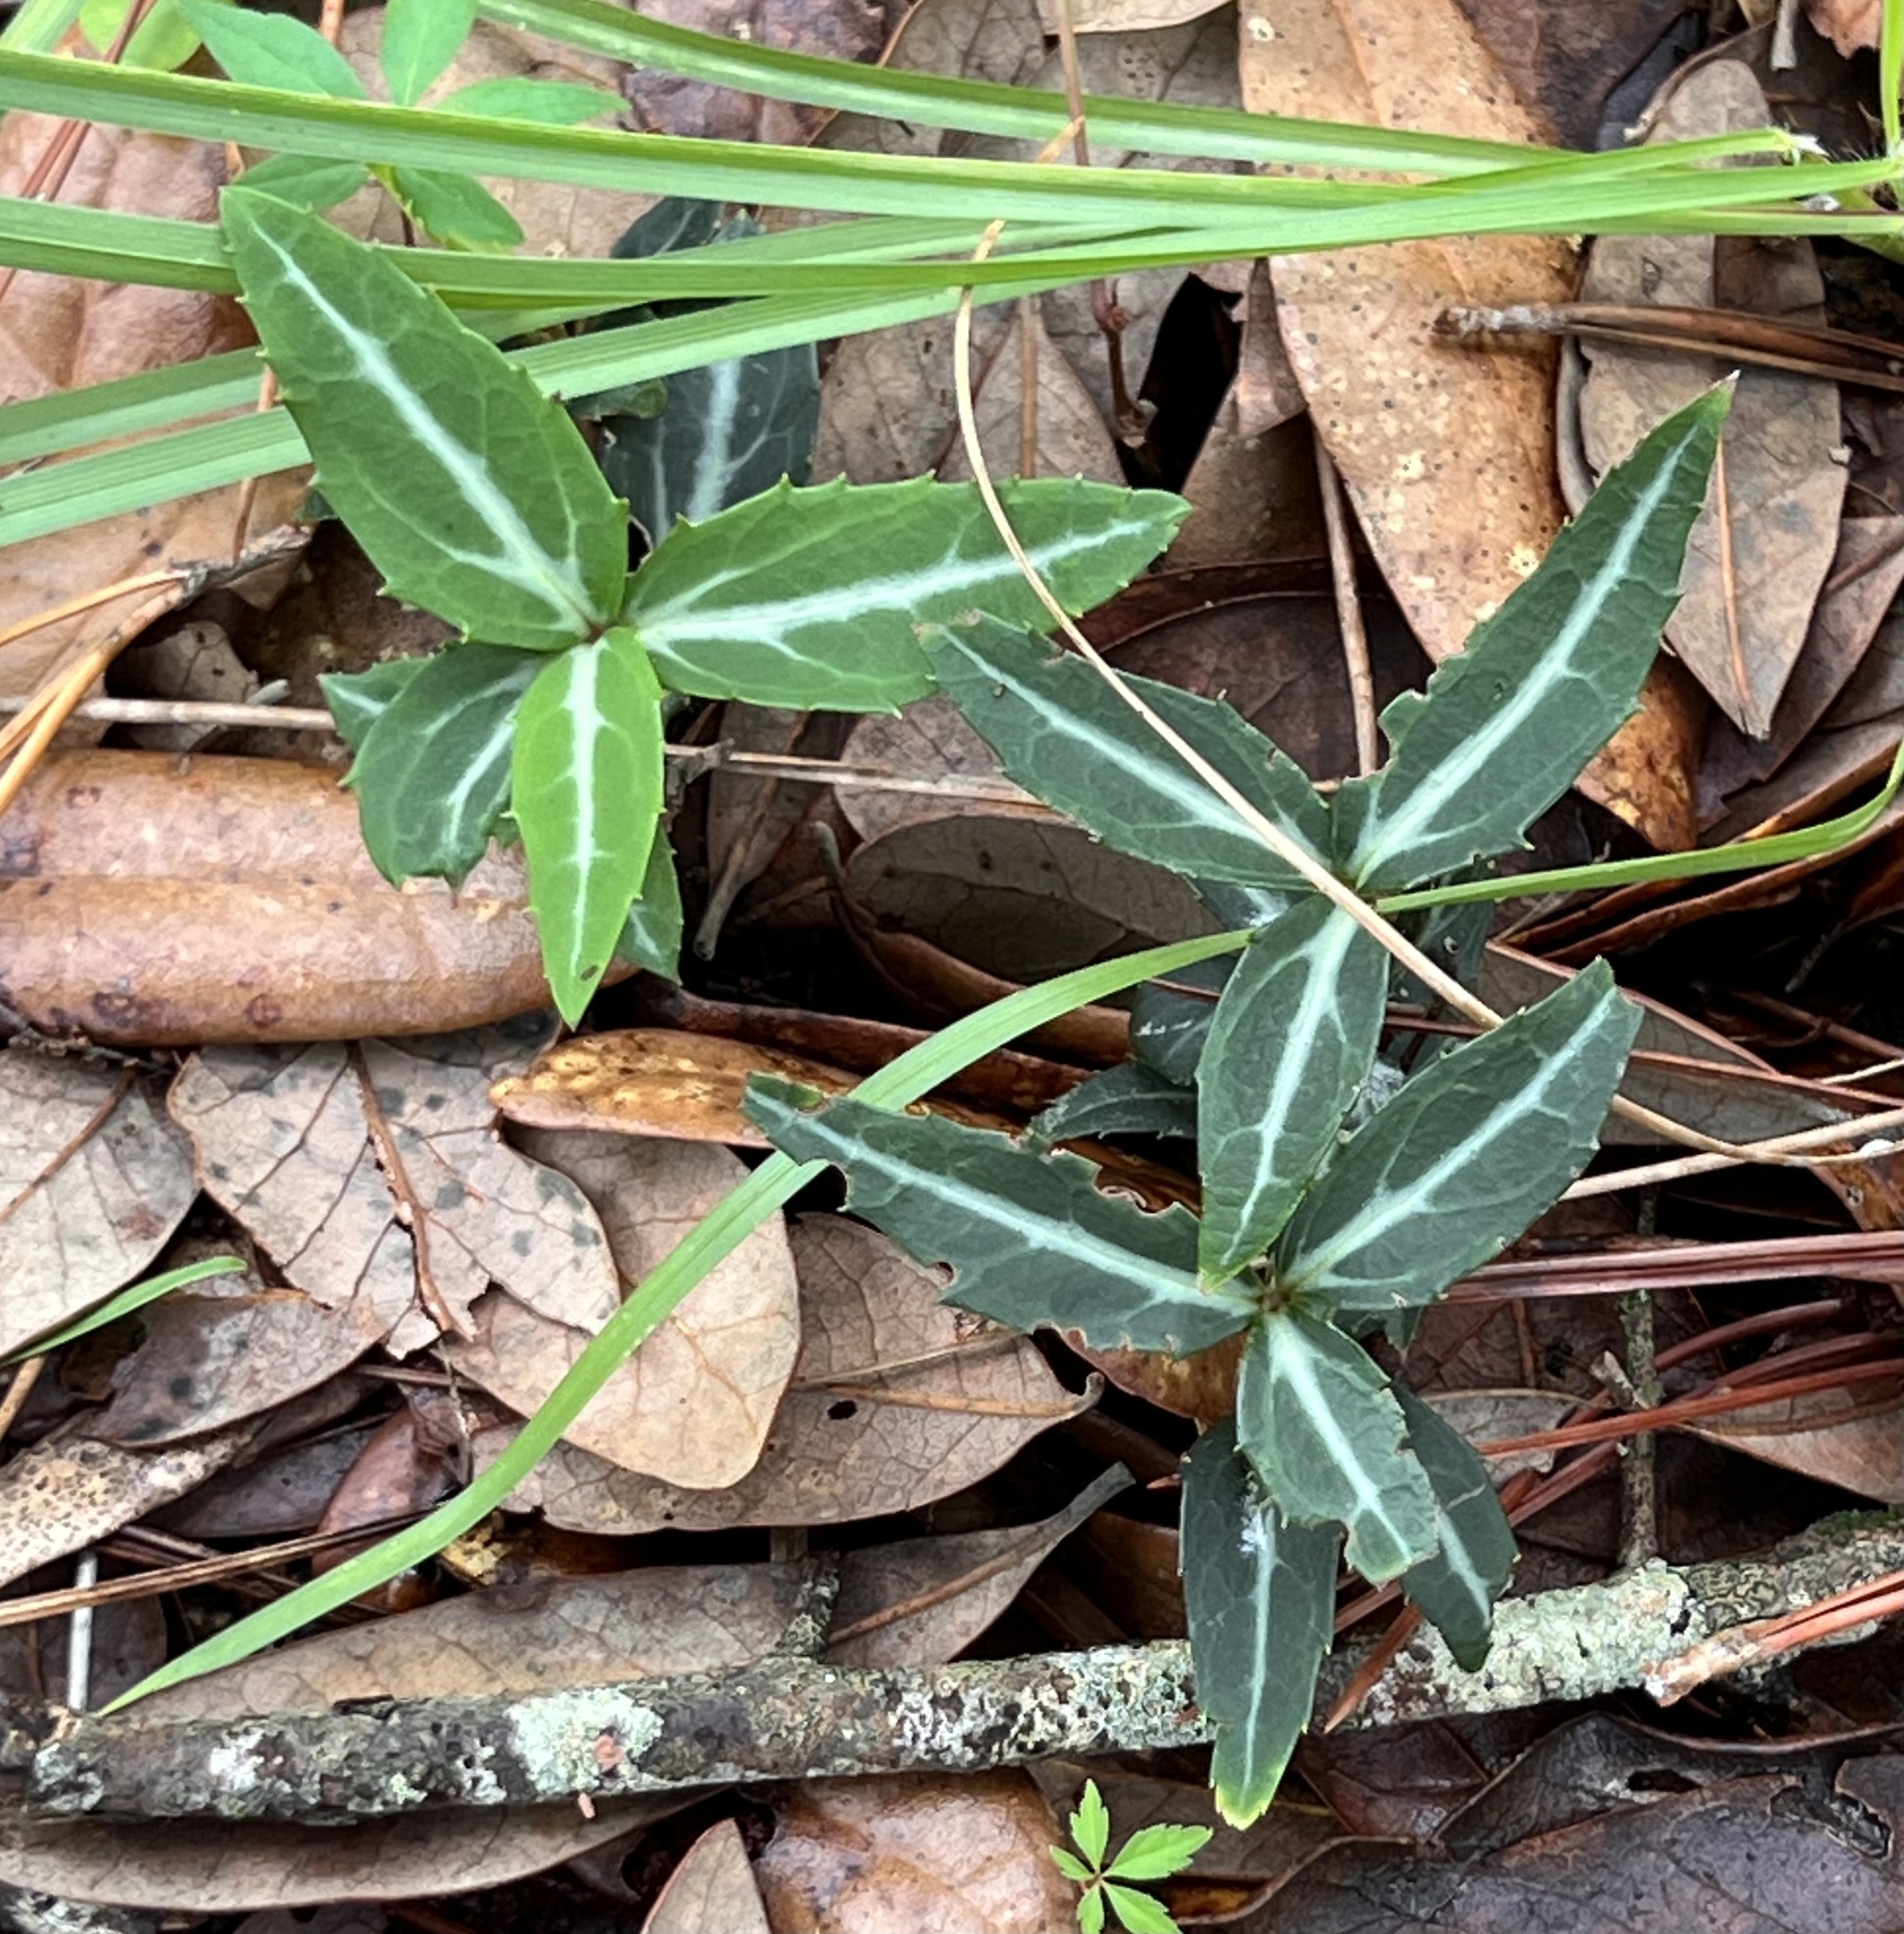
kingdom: Plantae
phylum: Tracheophyta
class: Magnoliopsida
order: Ericales
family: Ericaceae
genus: Chimaphila
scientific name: Chimaphila maculata
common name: Spotted pipsissewa
